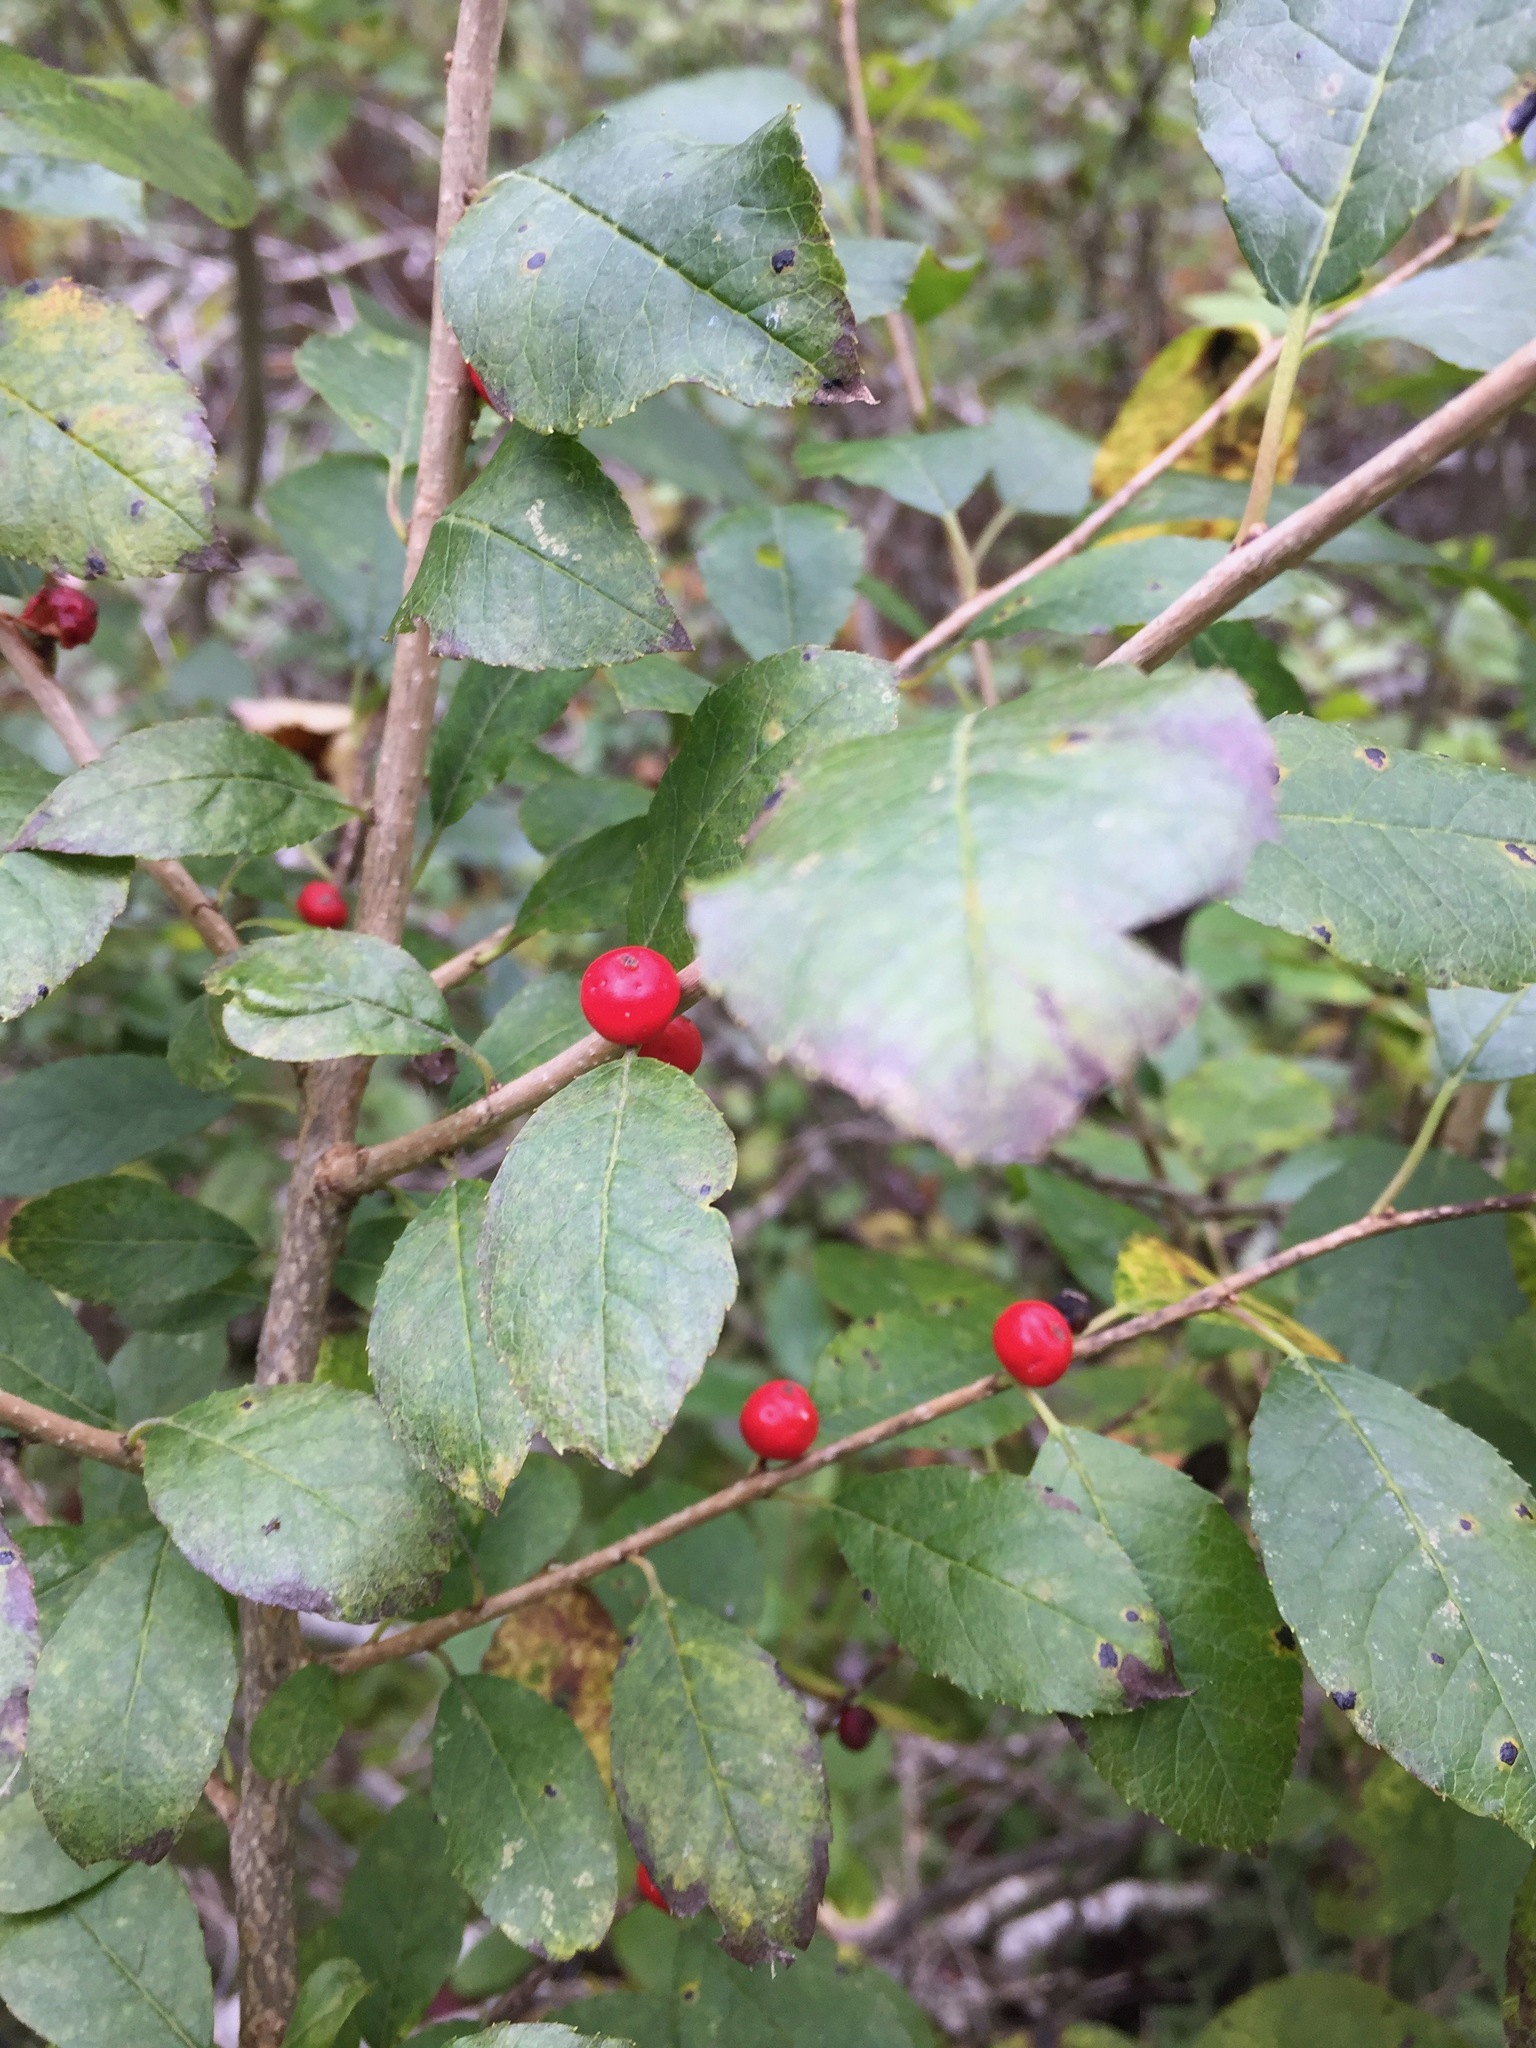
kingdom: Plantae
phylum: Tracheophyta
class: Magnoliopsida
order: Aquifoliales
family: Aquifoliaceae
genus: Ilex
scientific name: Ilex verticillata
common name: Virginia winterberry
